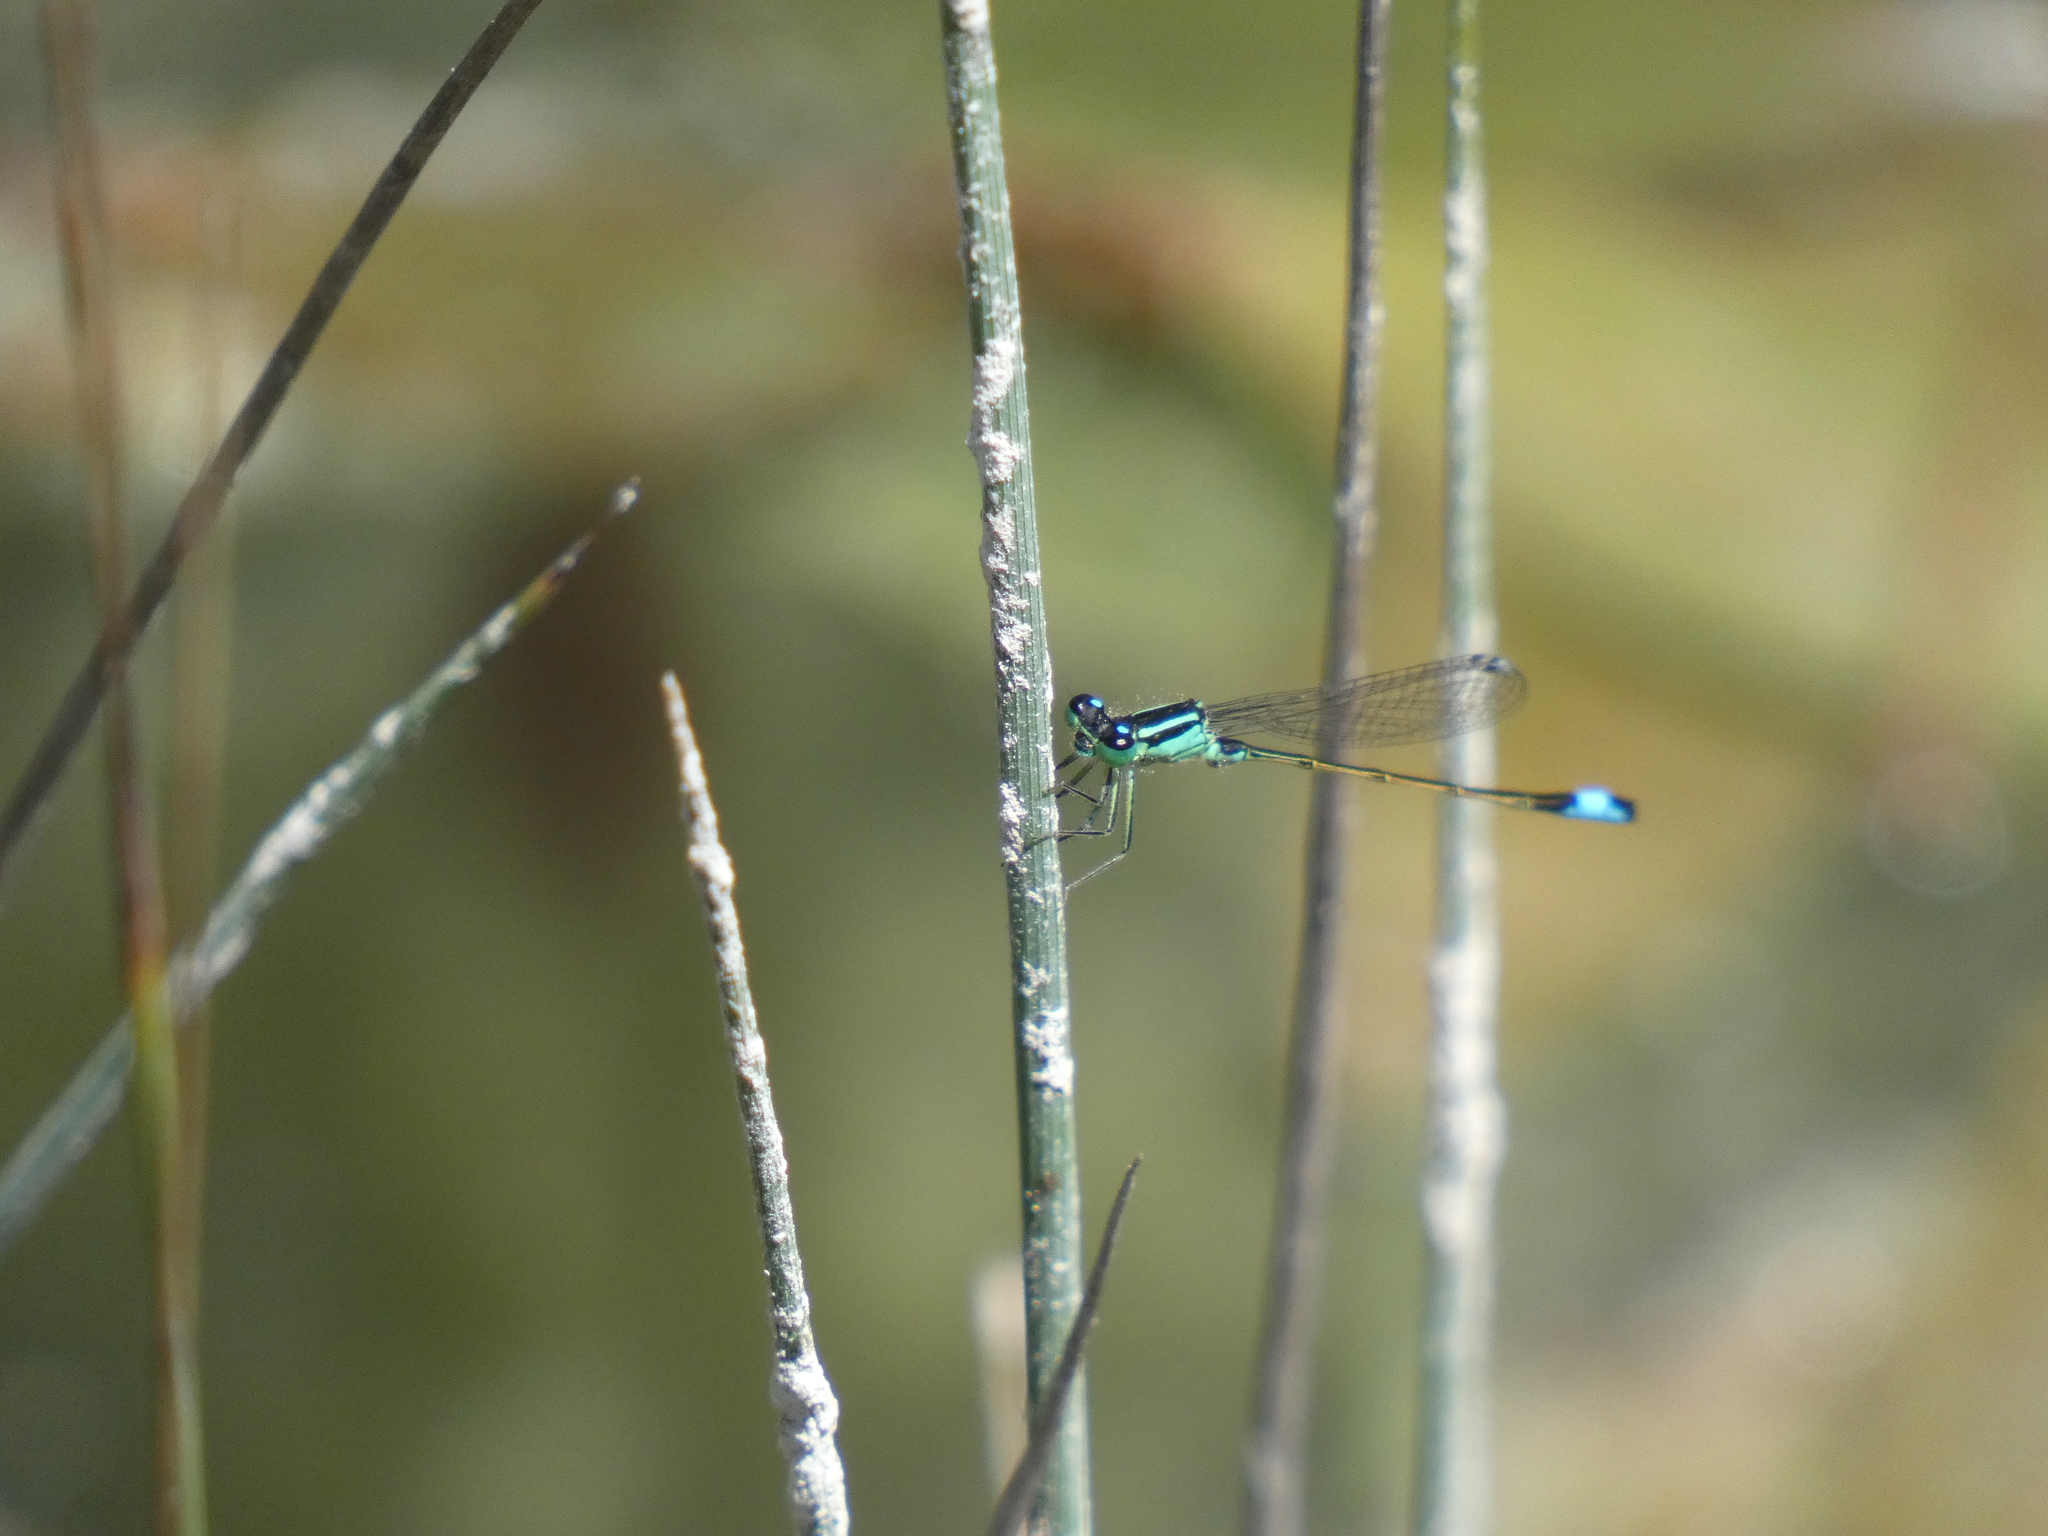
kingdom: Animalia
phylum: Arthropoda
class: Insecta
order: Odonata
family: Coenagrionidae
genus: Ischnura
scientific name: Ischnura elegans
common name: Blue-tailed damselfly
